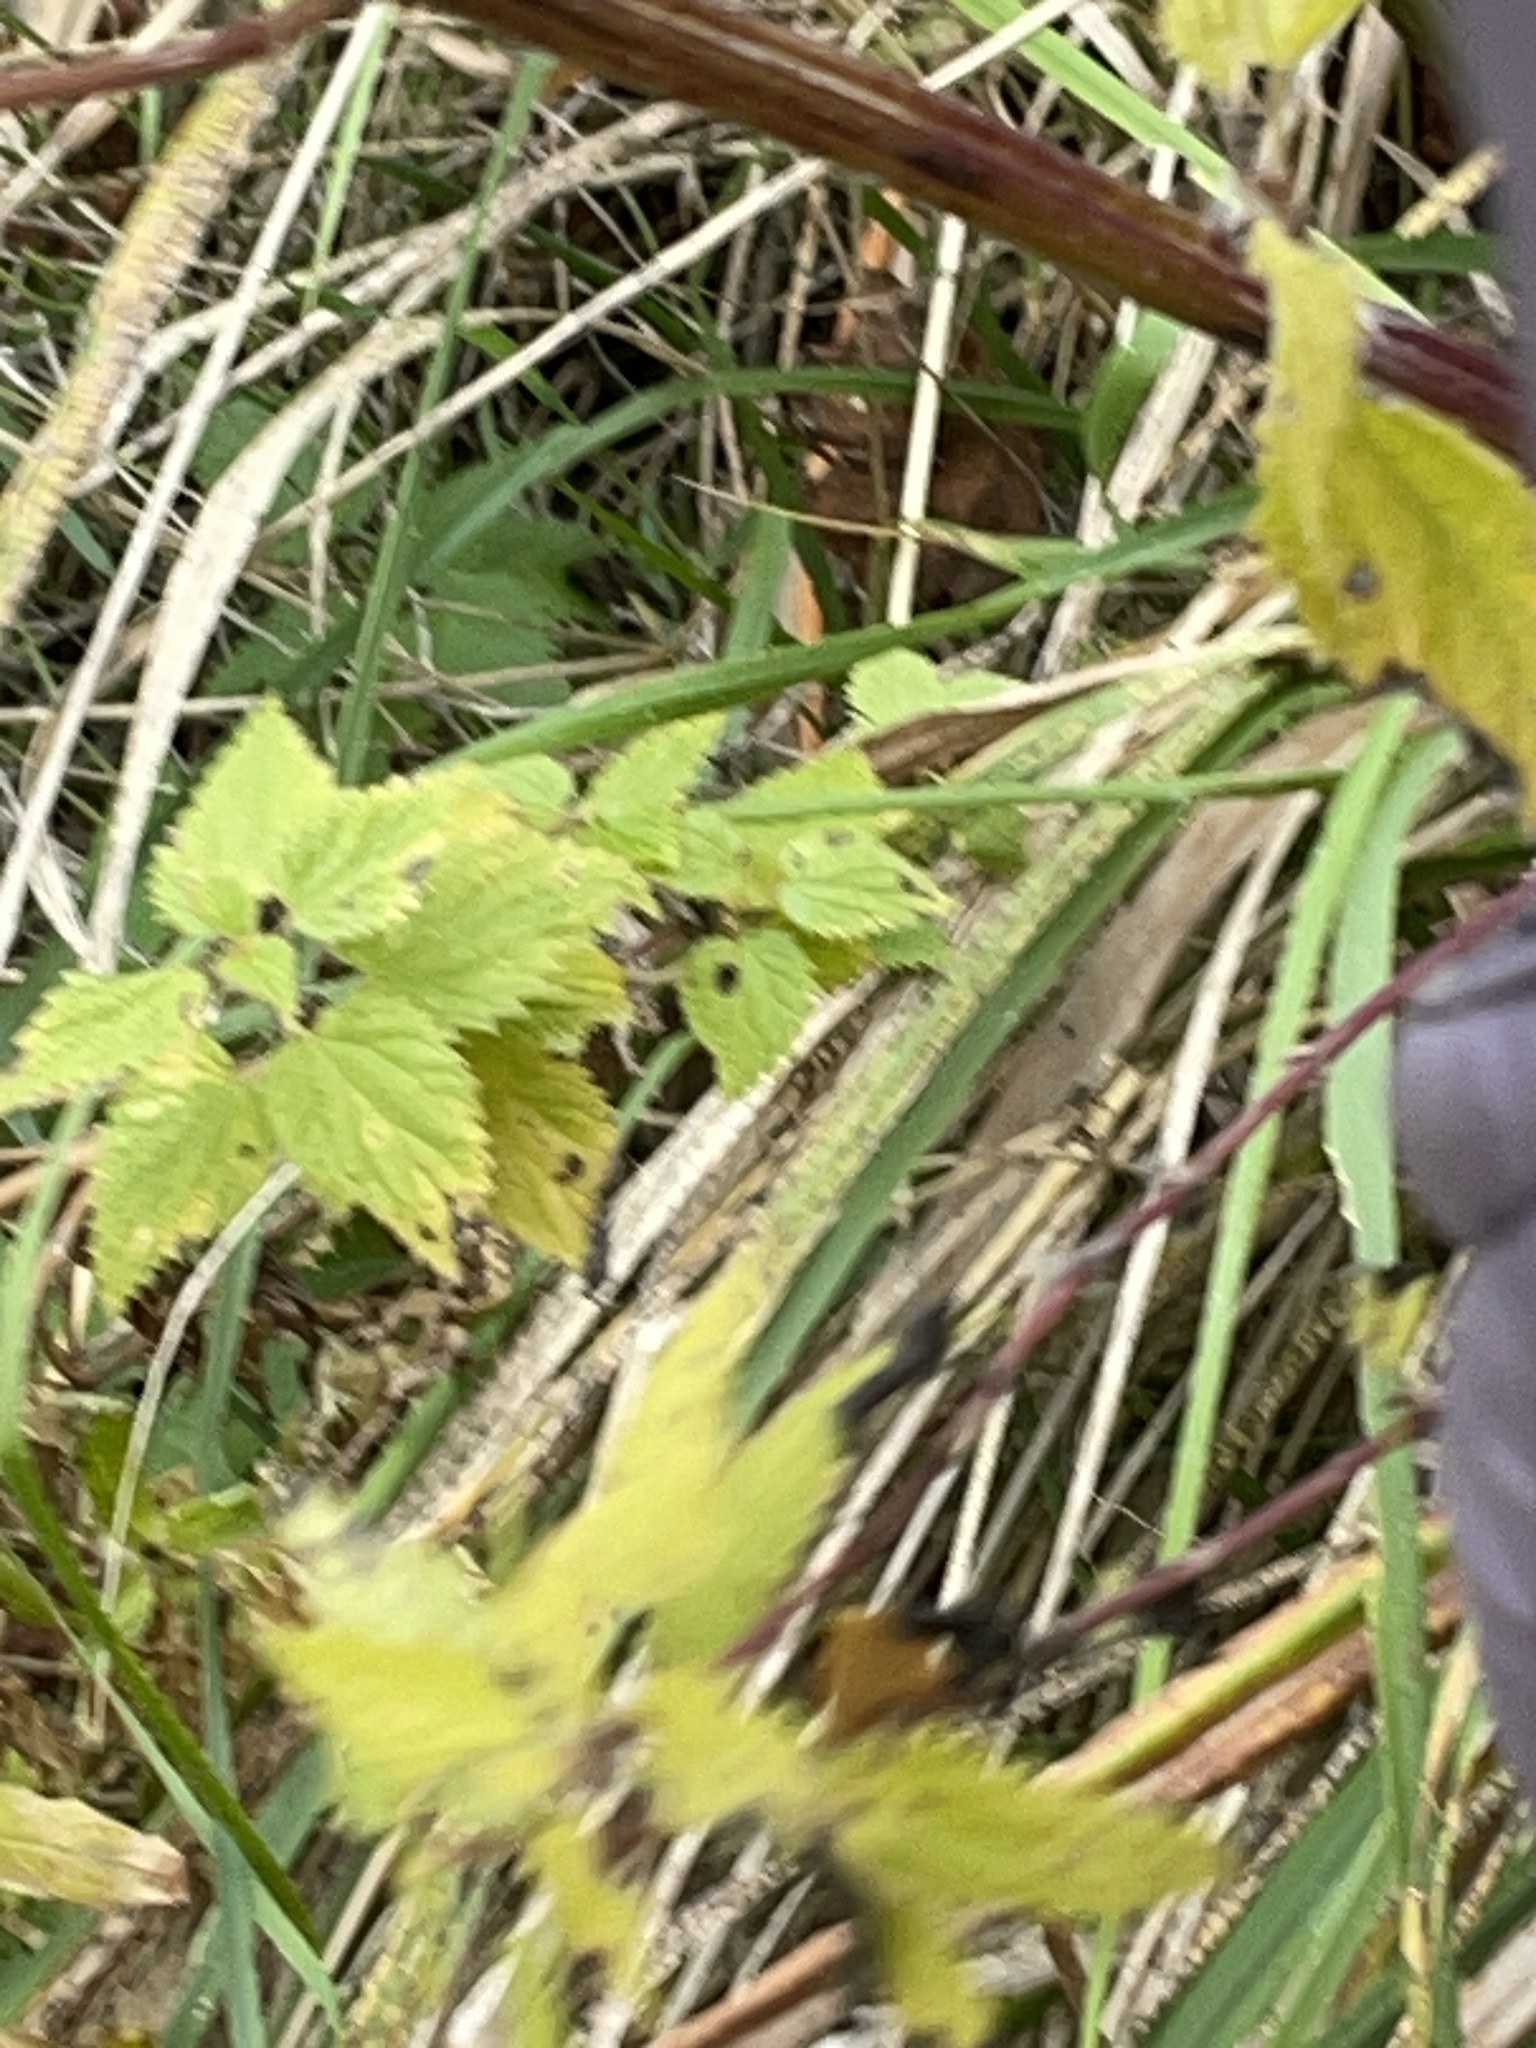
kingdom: Plantae
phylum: Tracheophyta
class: Magnoliopsida
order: Rosales
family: Urticaceae
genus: Urtica
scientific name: Urtica dioica
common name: Common nettle
